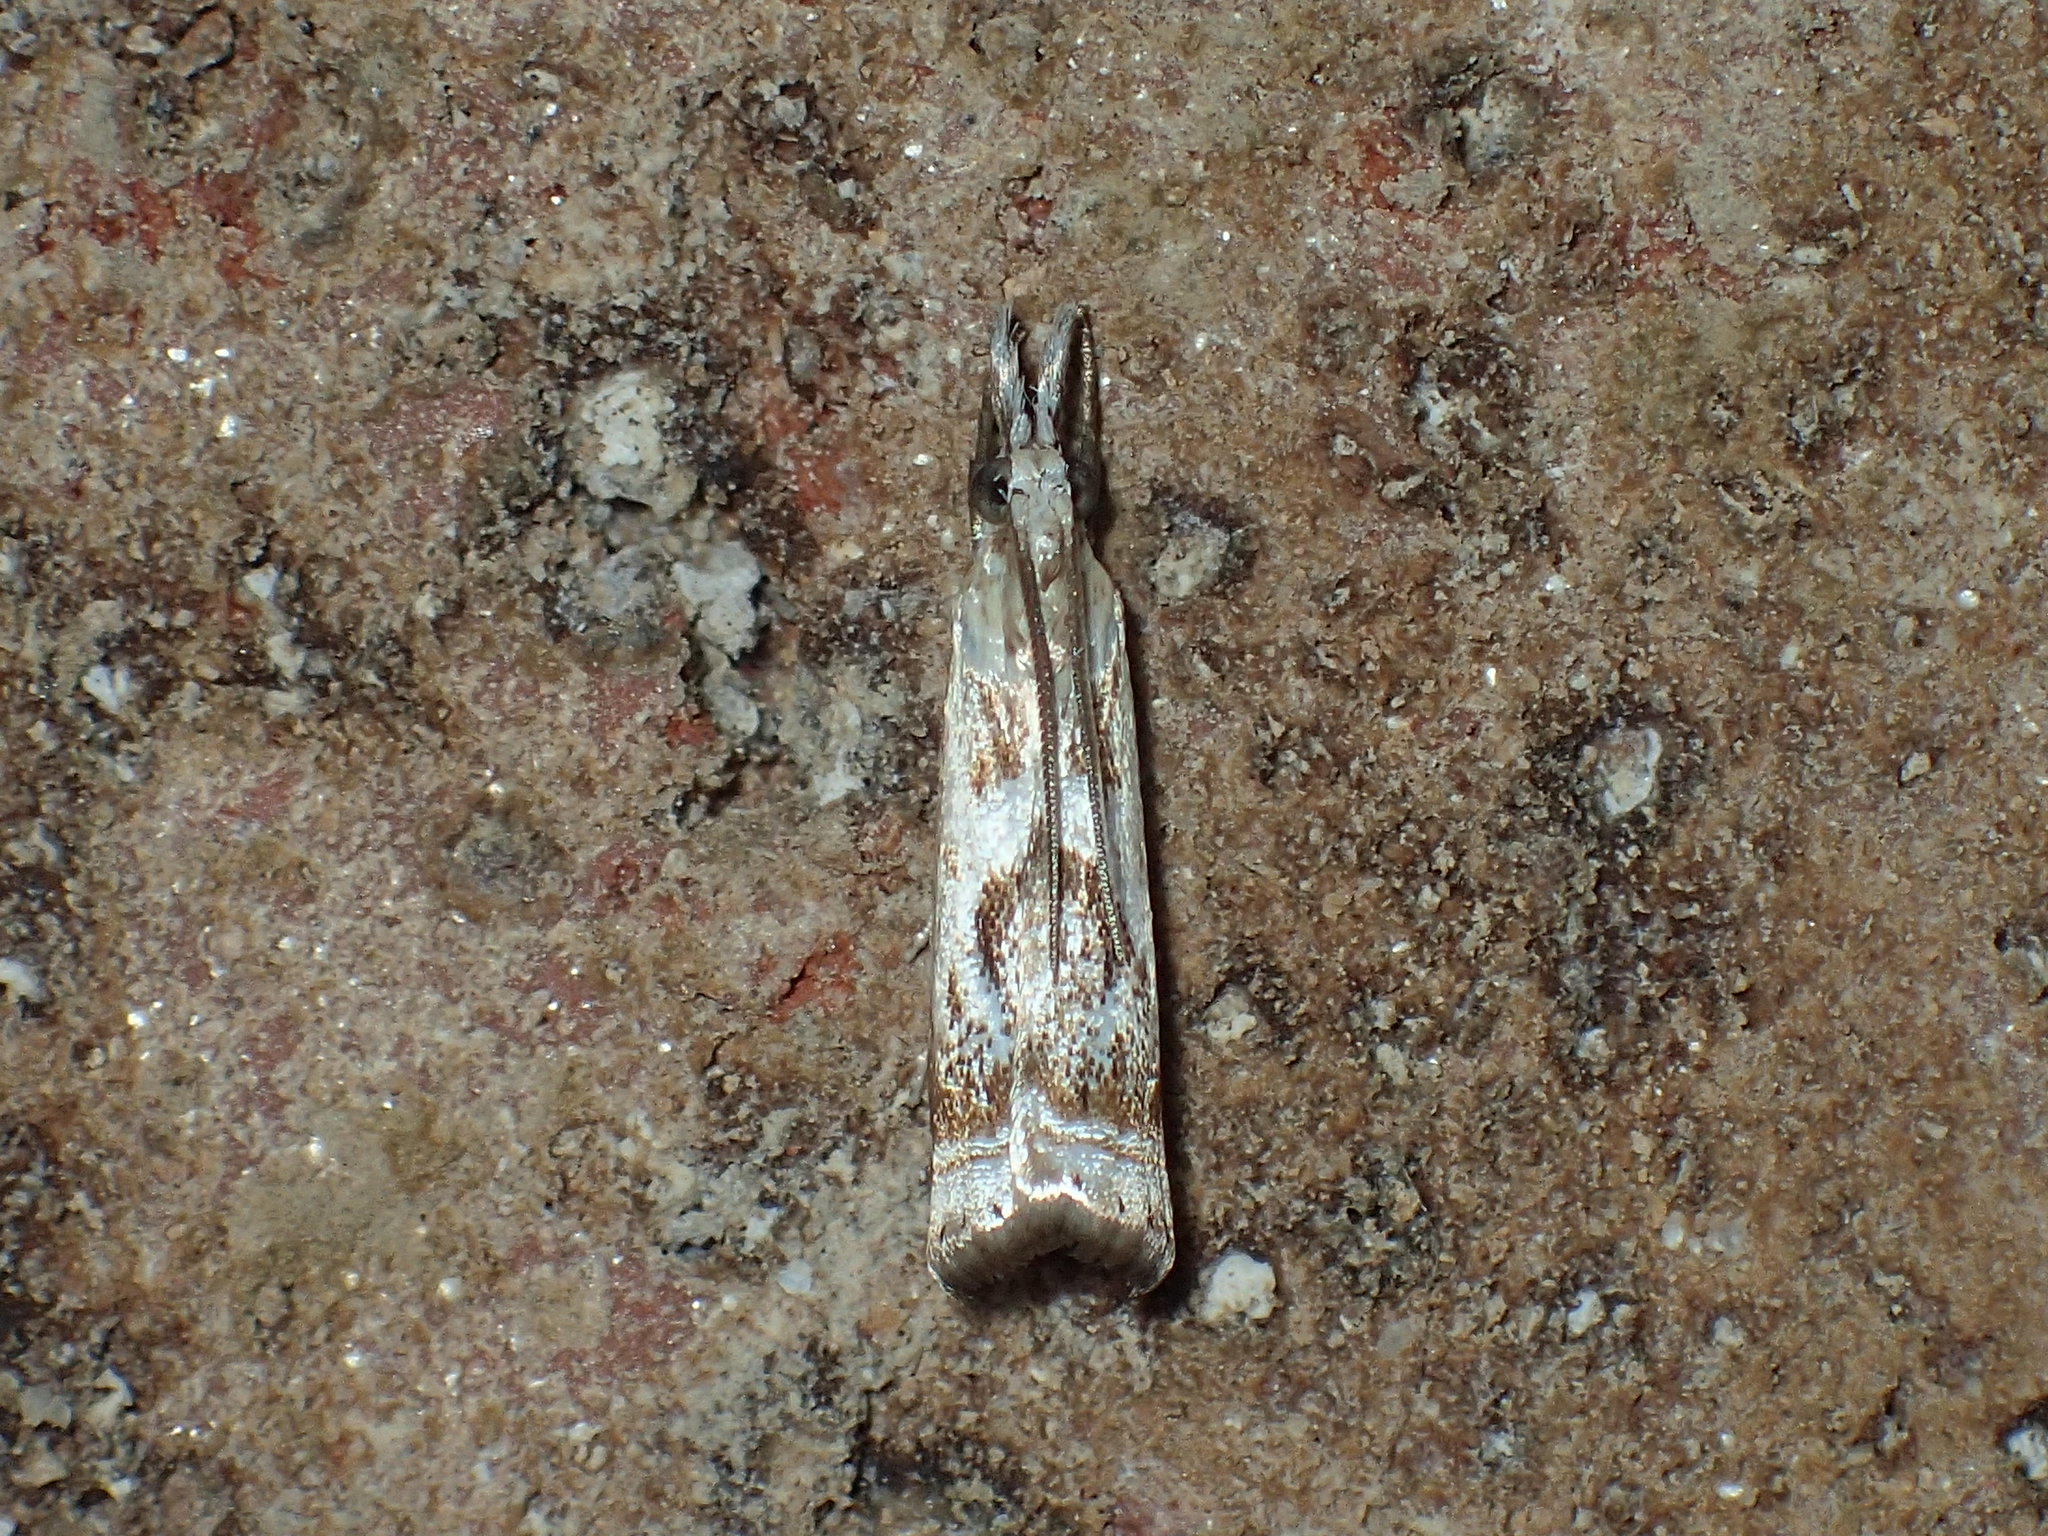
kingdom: Animalia
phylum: Arthropoda
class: Insecta
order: Lepidoptera
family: Crambidae
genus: Microcrambus
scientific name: Microcrambus elegans
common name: Elegant grass-veneer
